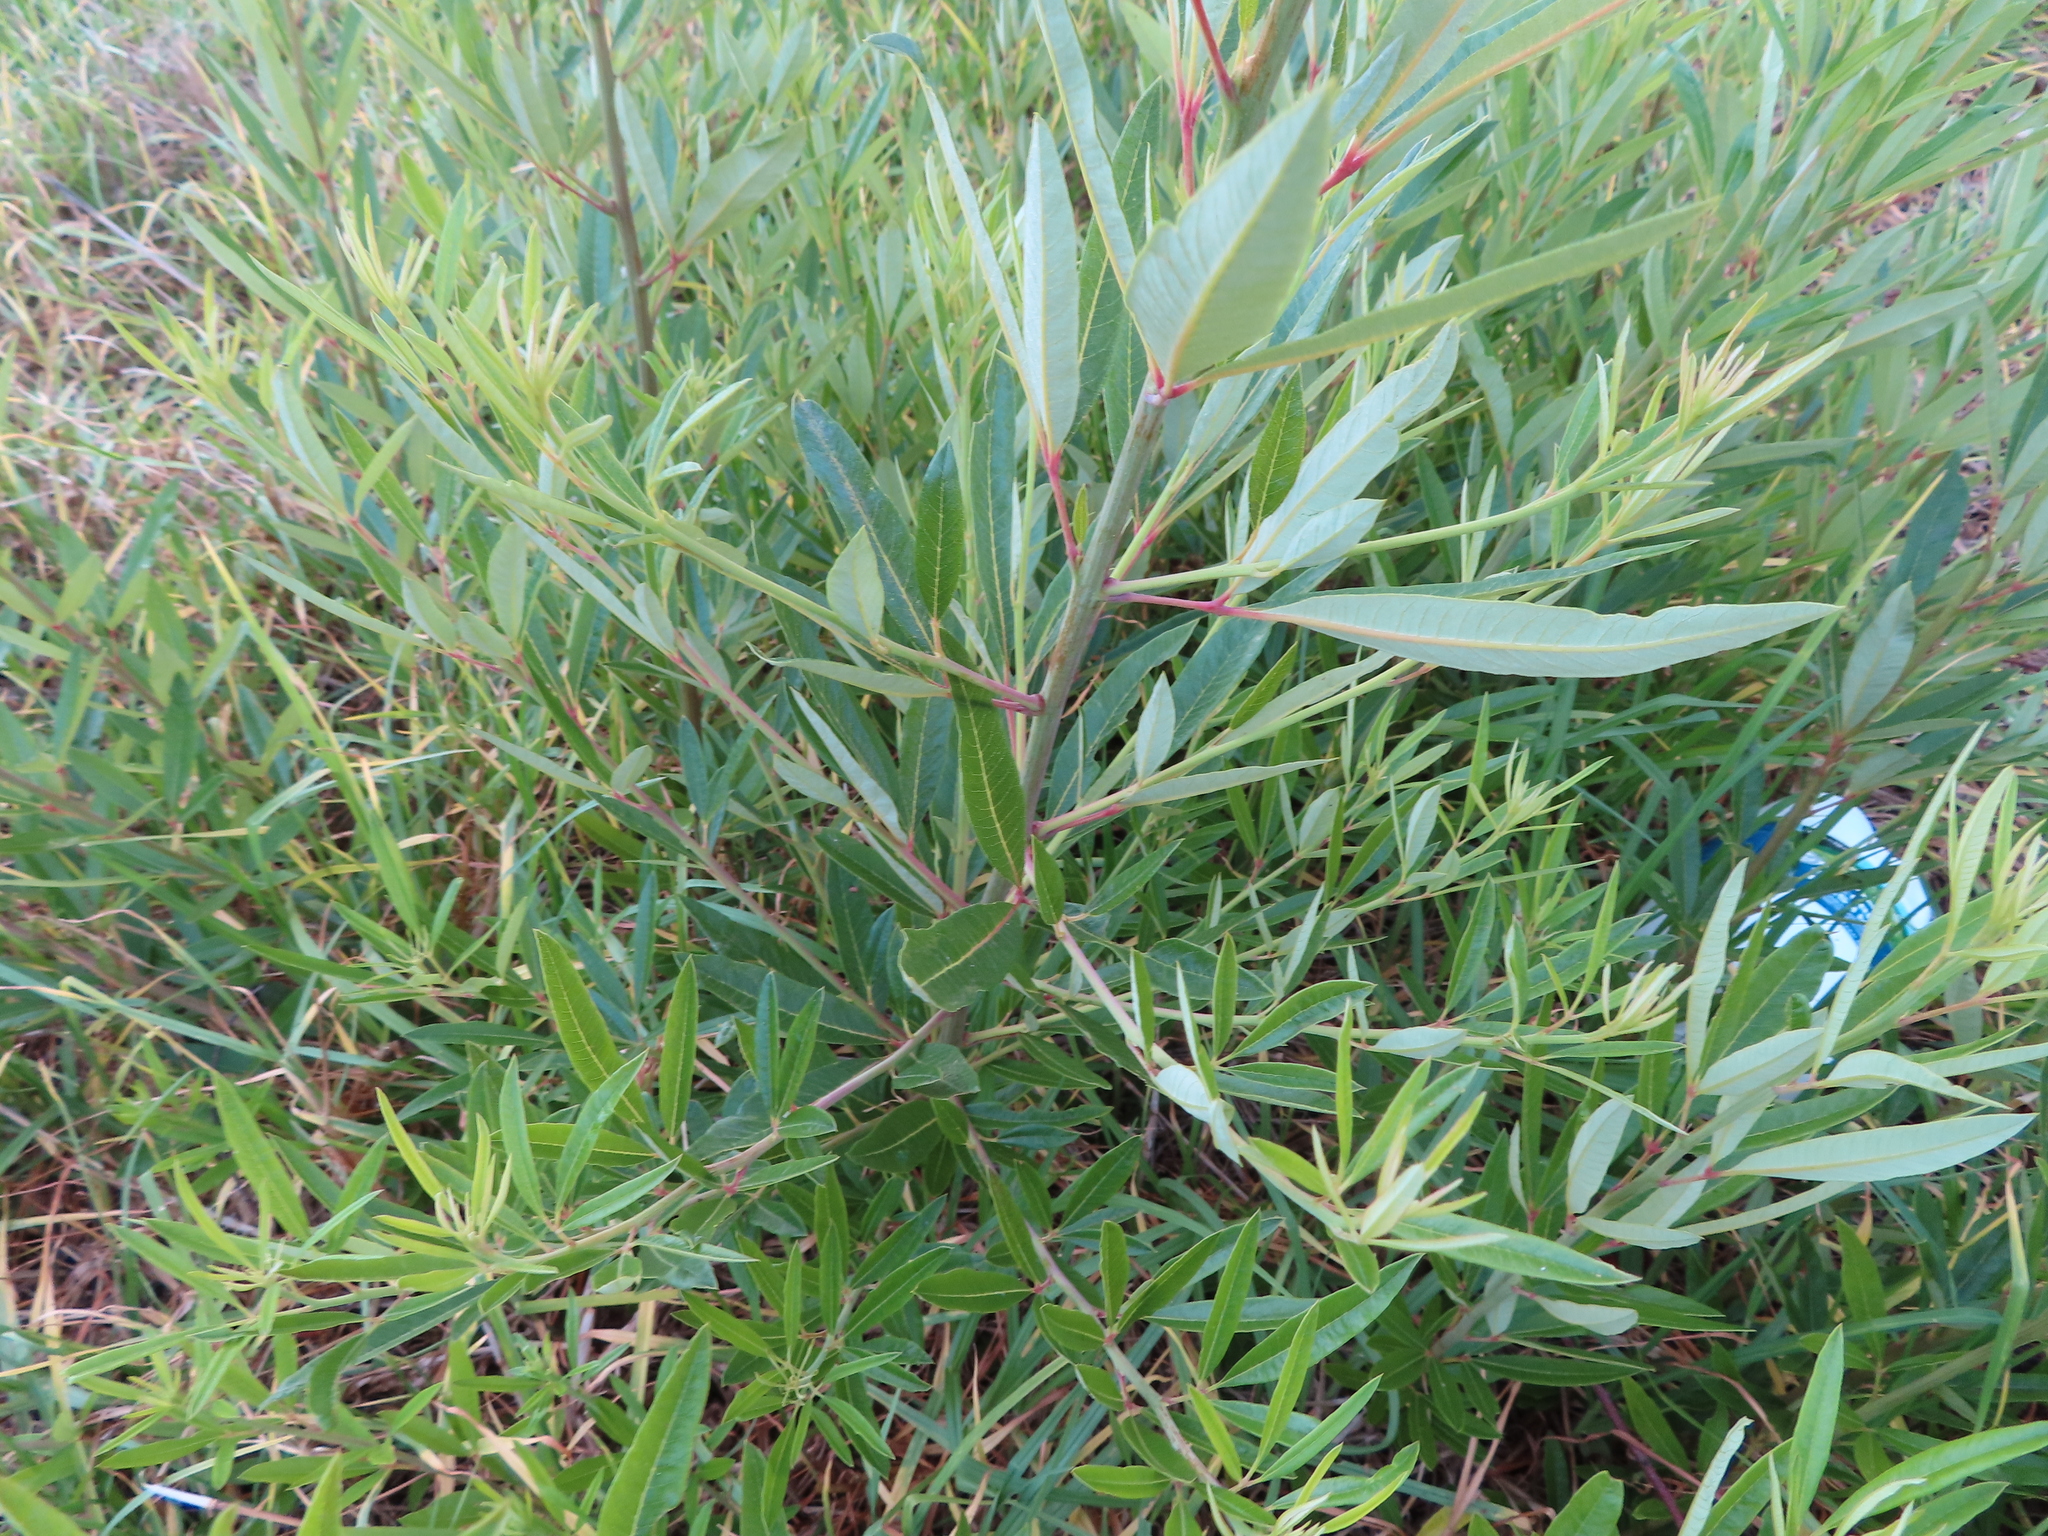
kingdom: Plantae
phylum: Tracheophyta
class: Magnoliopsida
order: Sapindales
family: Anacardiaceae
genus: Searsia
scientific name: Searsia angustifolia
